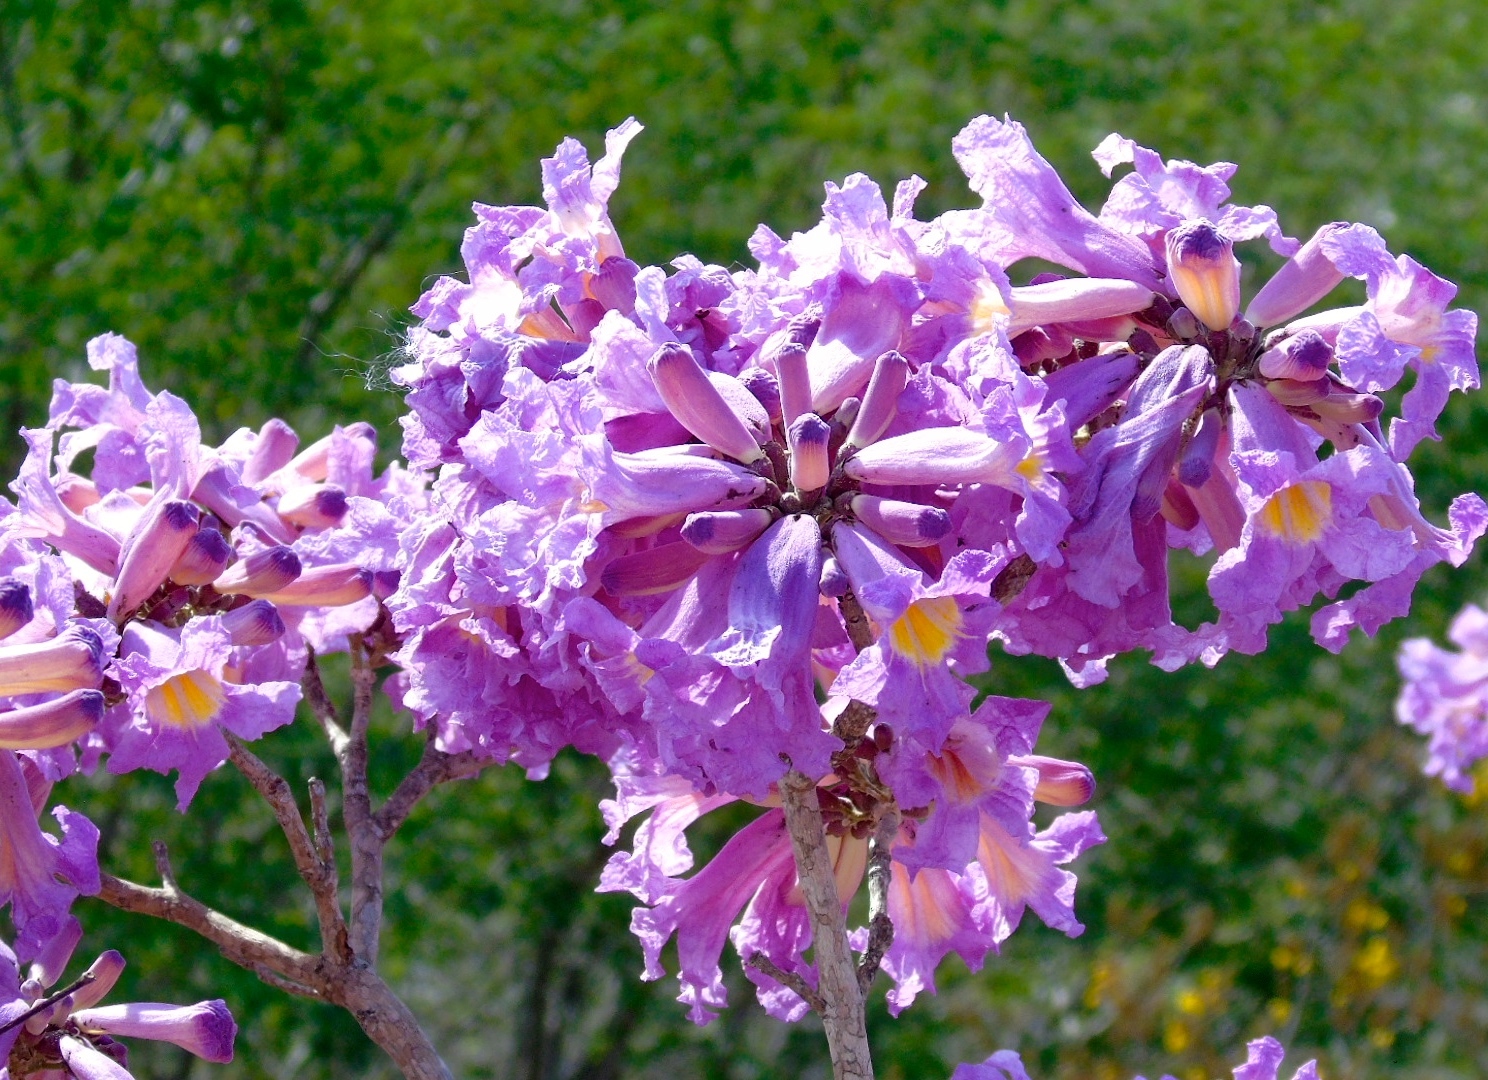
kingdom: Plantae
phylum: Tracheophyta
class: Magnoliopsida
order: Lamiales
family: Bignoniaceae
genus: Handroanthus
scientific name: Handroanthus impetiginosum
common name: Pink trumpet tree
